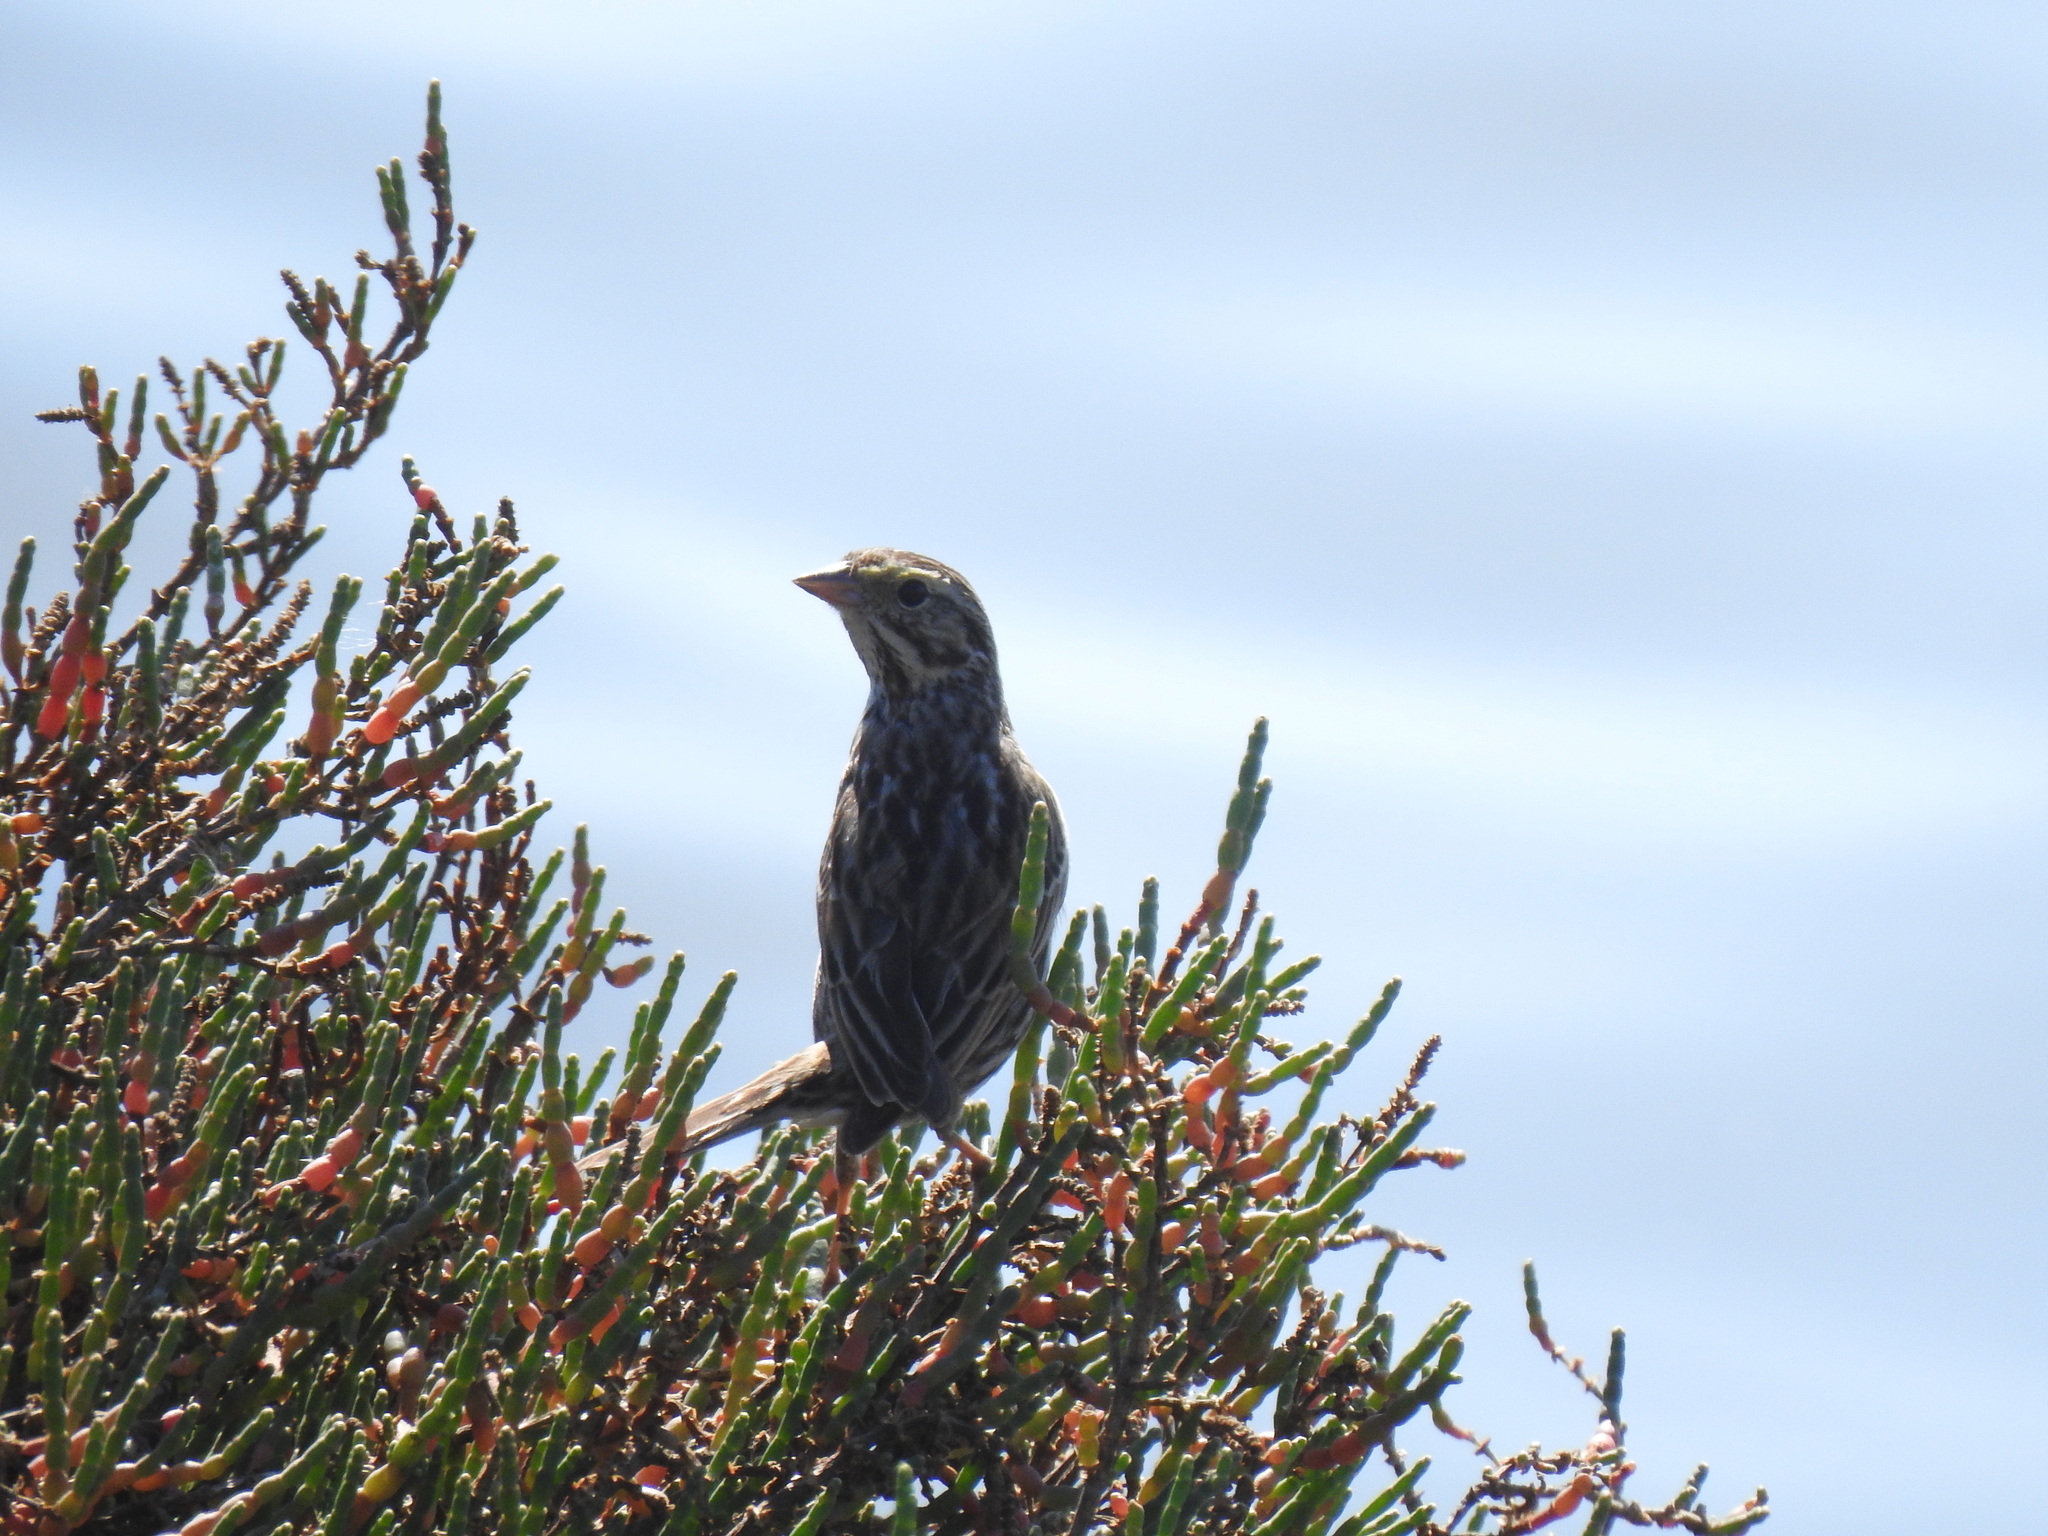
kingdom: Animalia
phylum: Chordata
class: Aves
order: Passeriformes
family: Passerellidae
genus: Passerculus
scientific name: Passerculus sandwichensis
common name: Savannah sparrow
